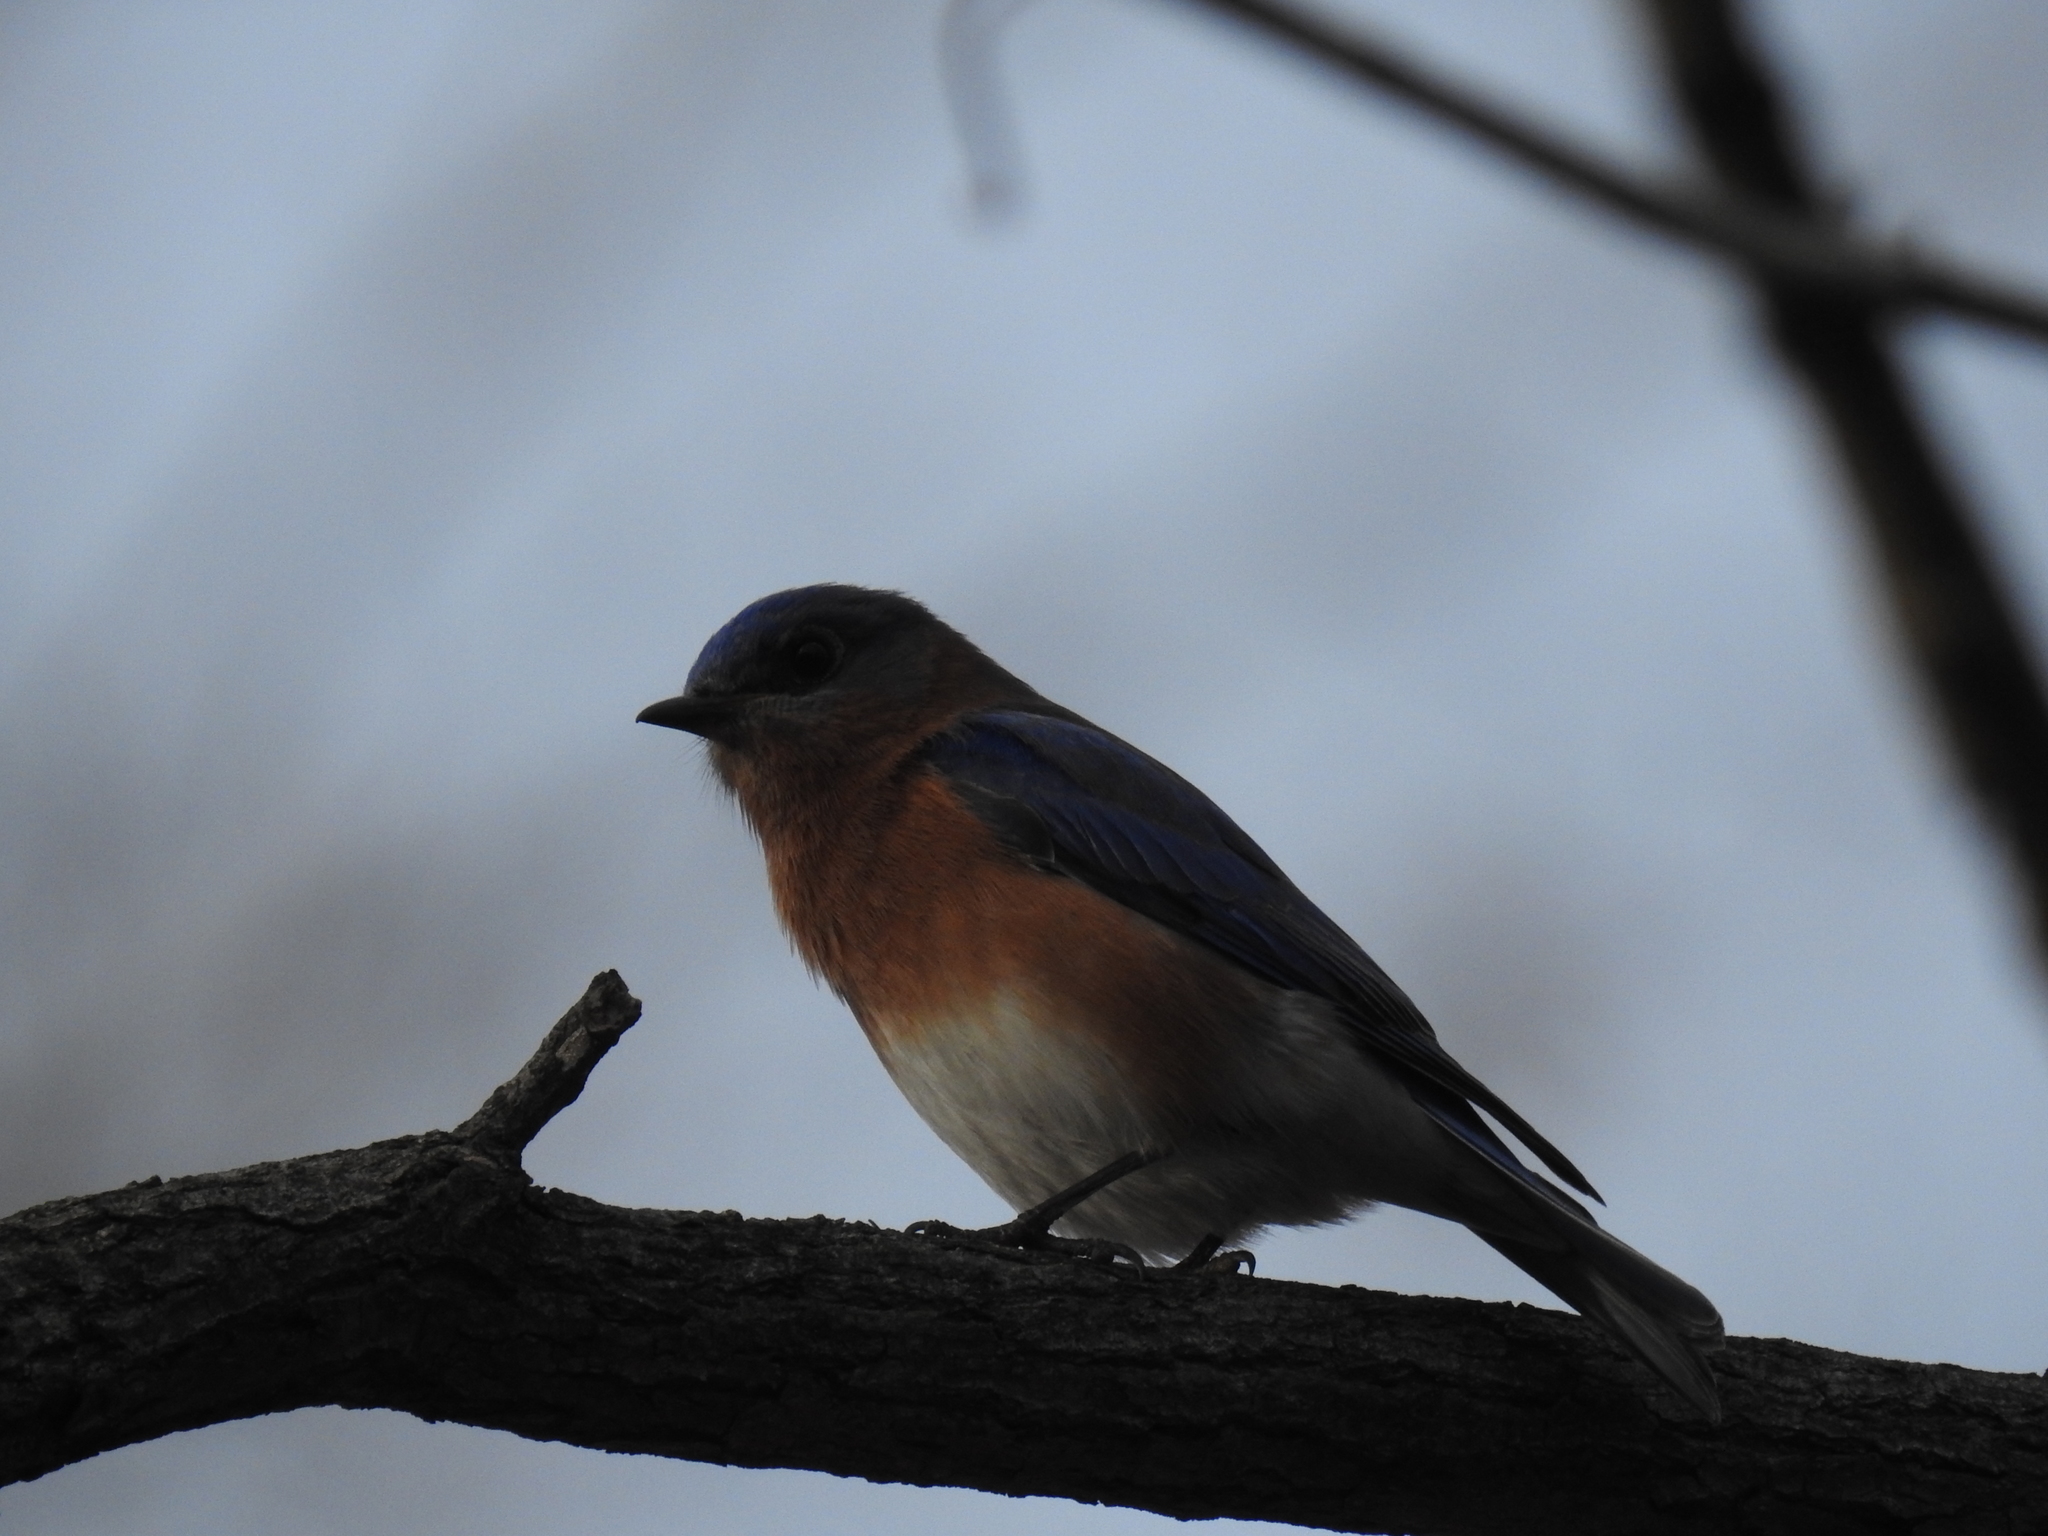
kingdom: Animalia
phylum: Chordata
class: Aves
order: Passeriformes
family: Turdidae
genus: Sialia
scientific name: Sialia sialis
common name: Eastern bluebird
